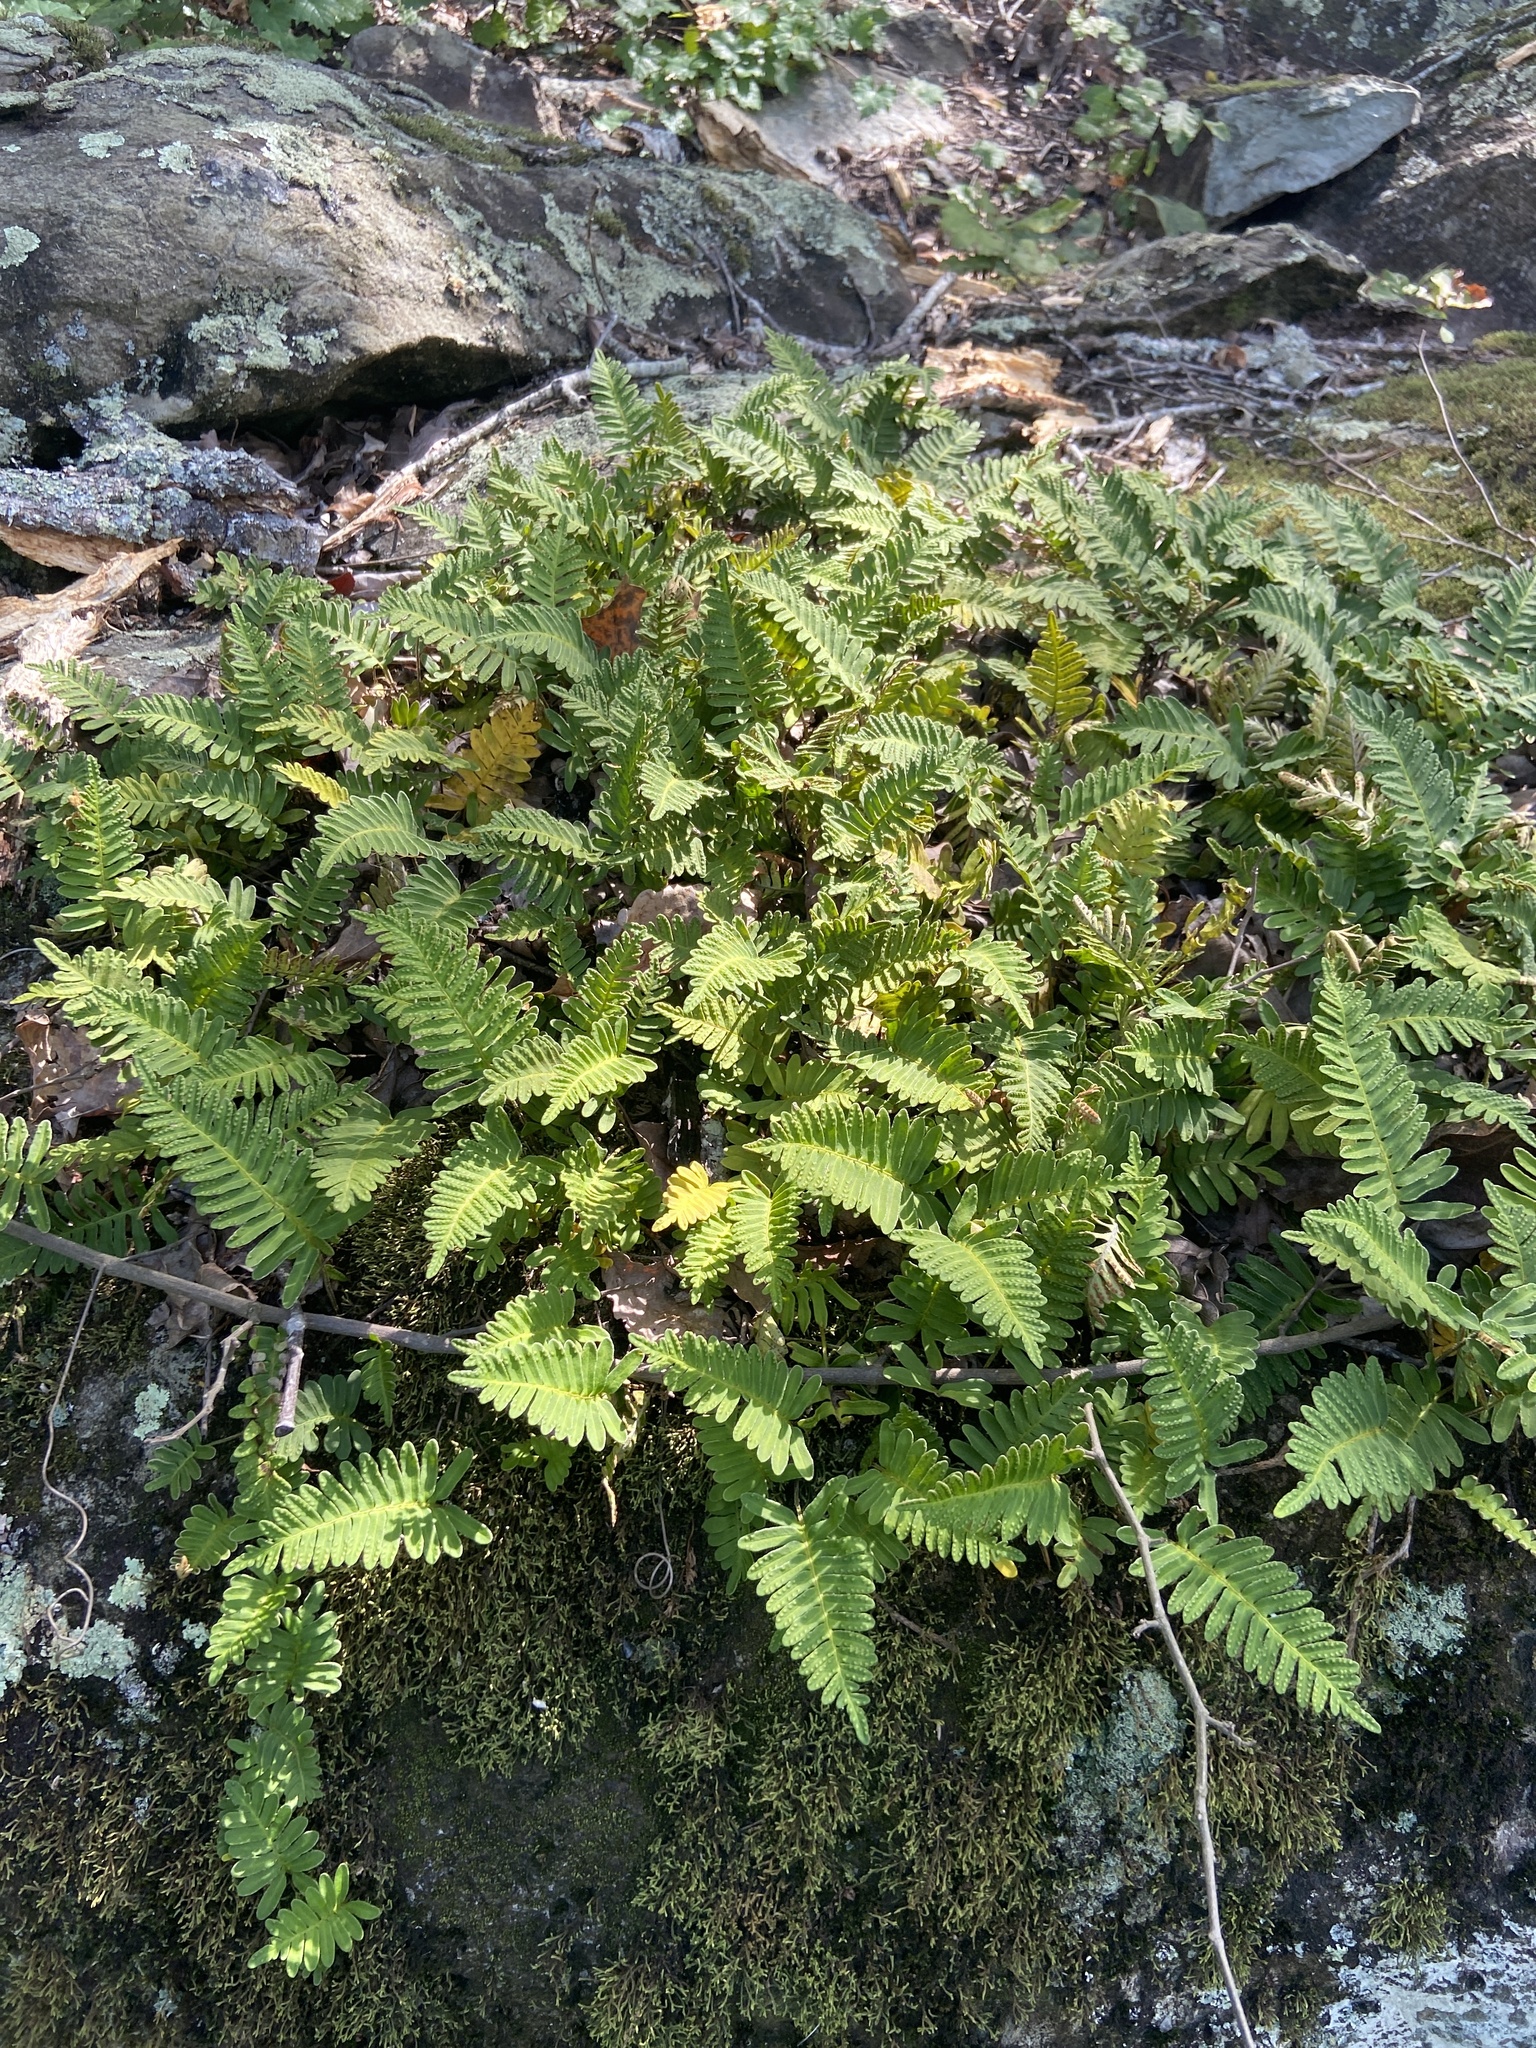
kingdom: Plantae
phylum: Tracheophyta
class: Polypodiopsida
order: Polypodiales
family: Polypodiaceae
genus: Pleopeltis
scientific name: Pleopeltis michauxiana
